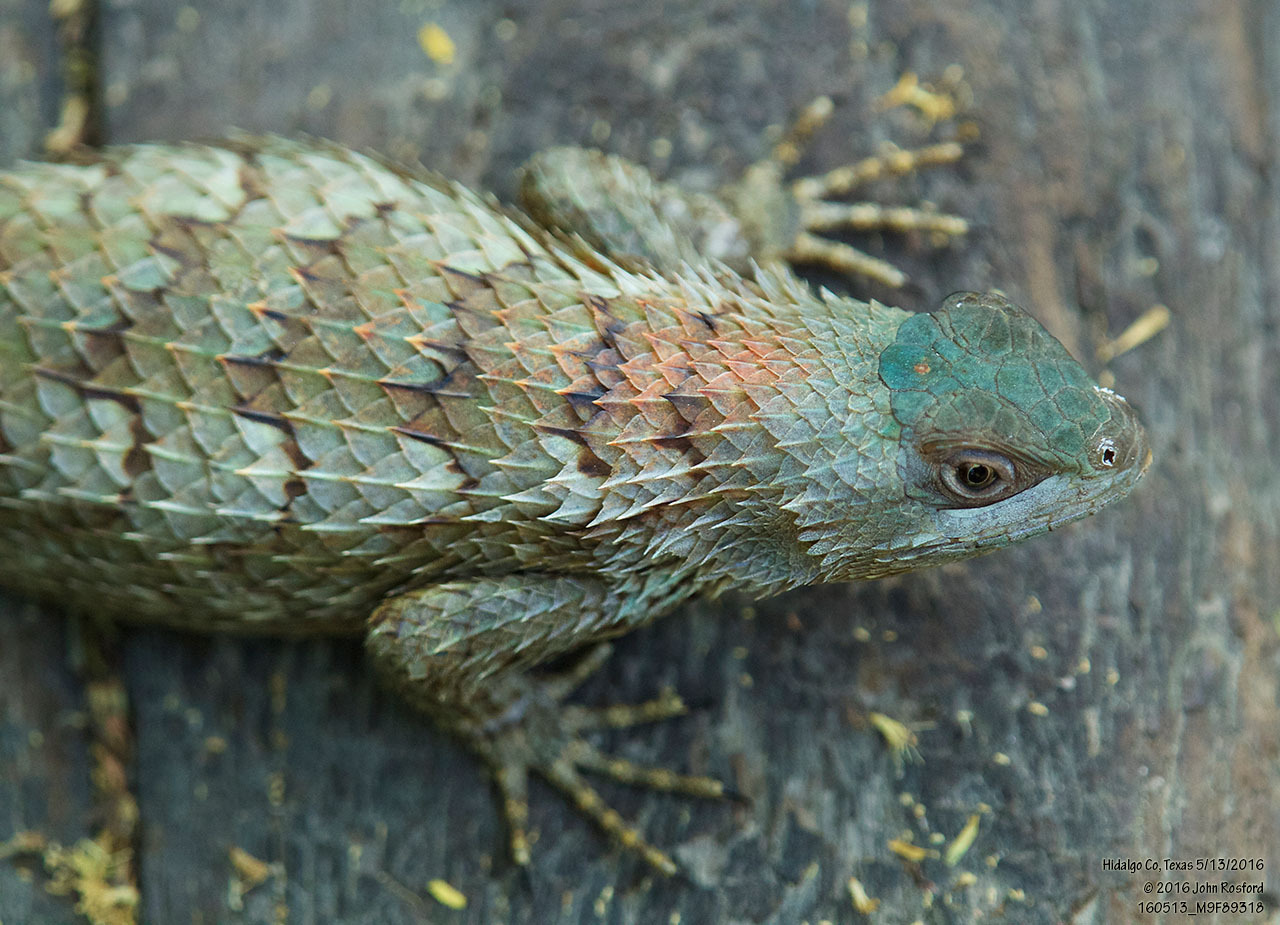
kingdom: Animalia
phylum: Chordata
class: Squamata
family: Phrynosomatidae
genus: Sceloporus
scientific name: Sceloporus olivaceus
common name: Texas spiny lizard
